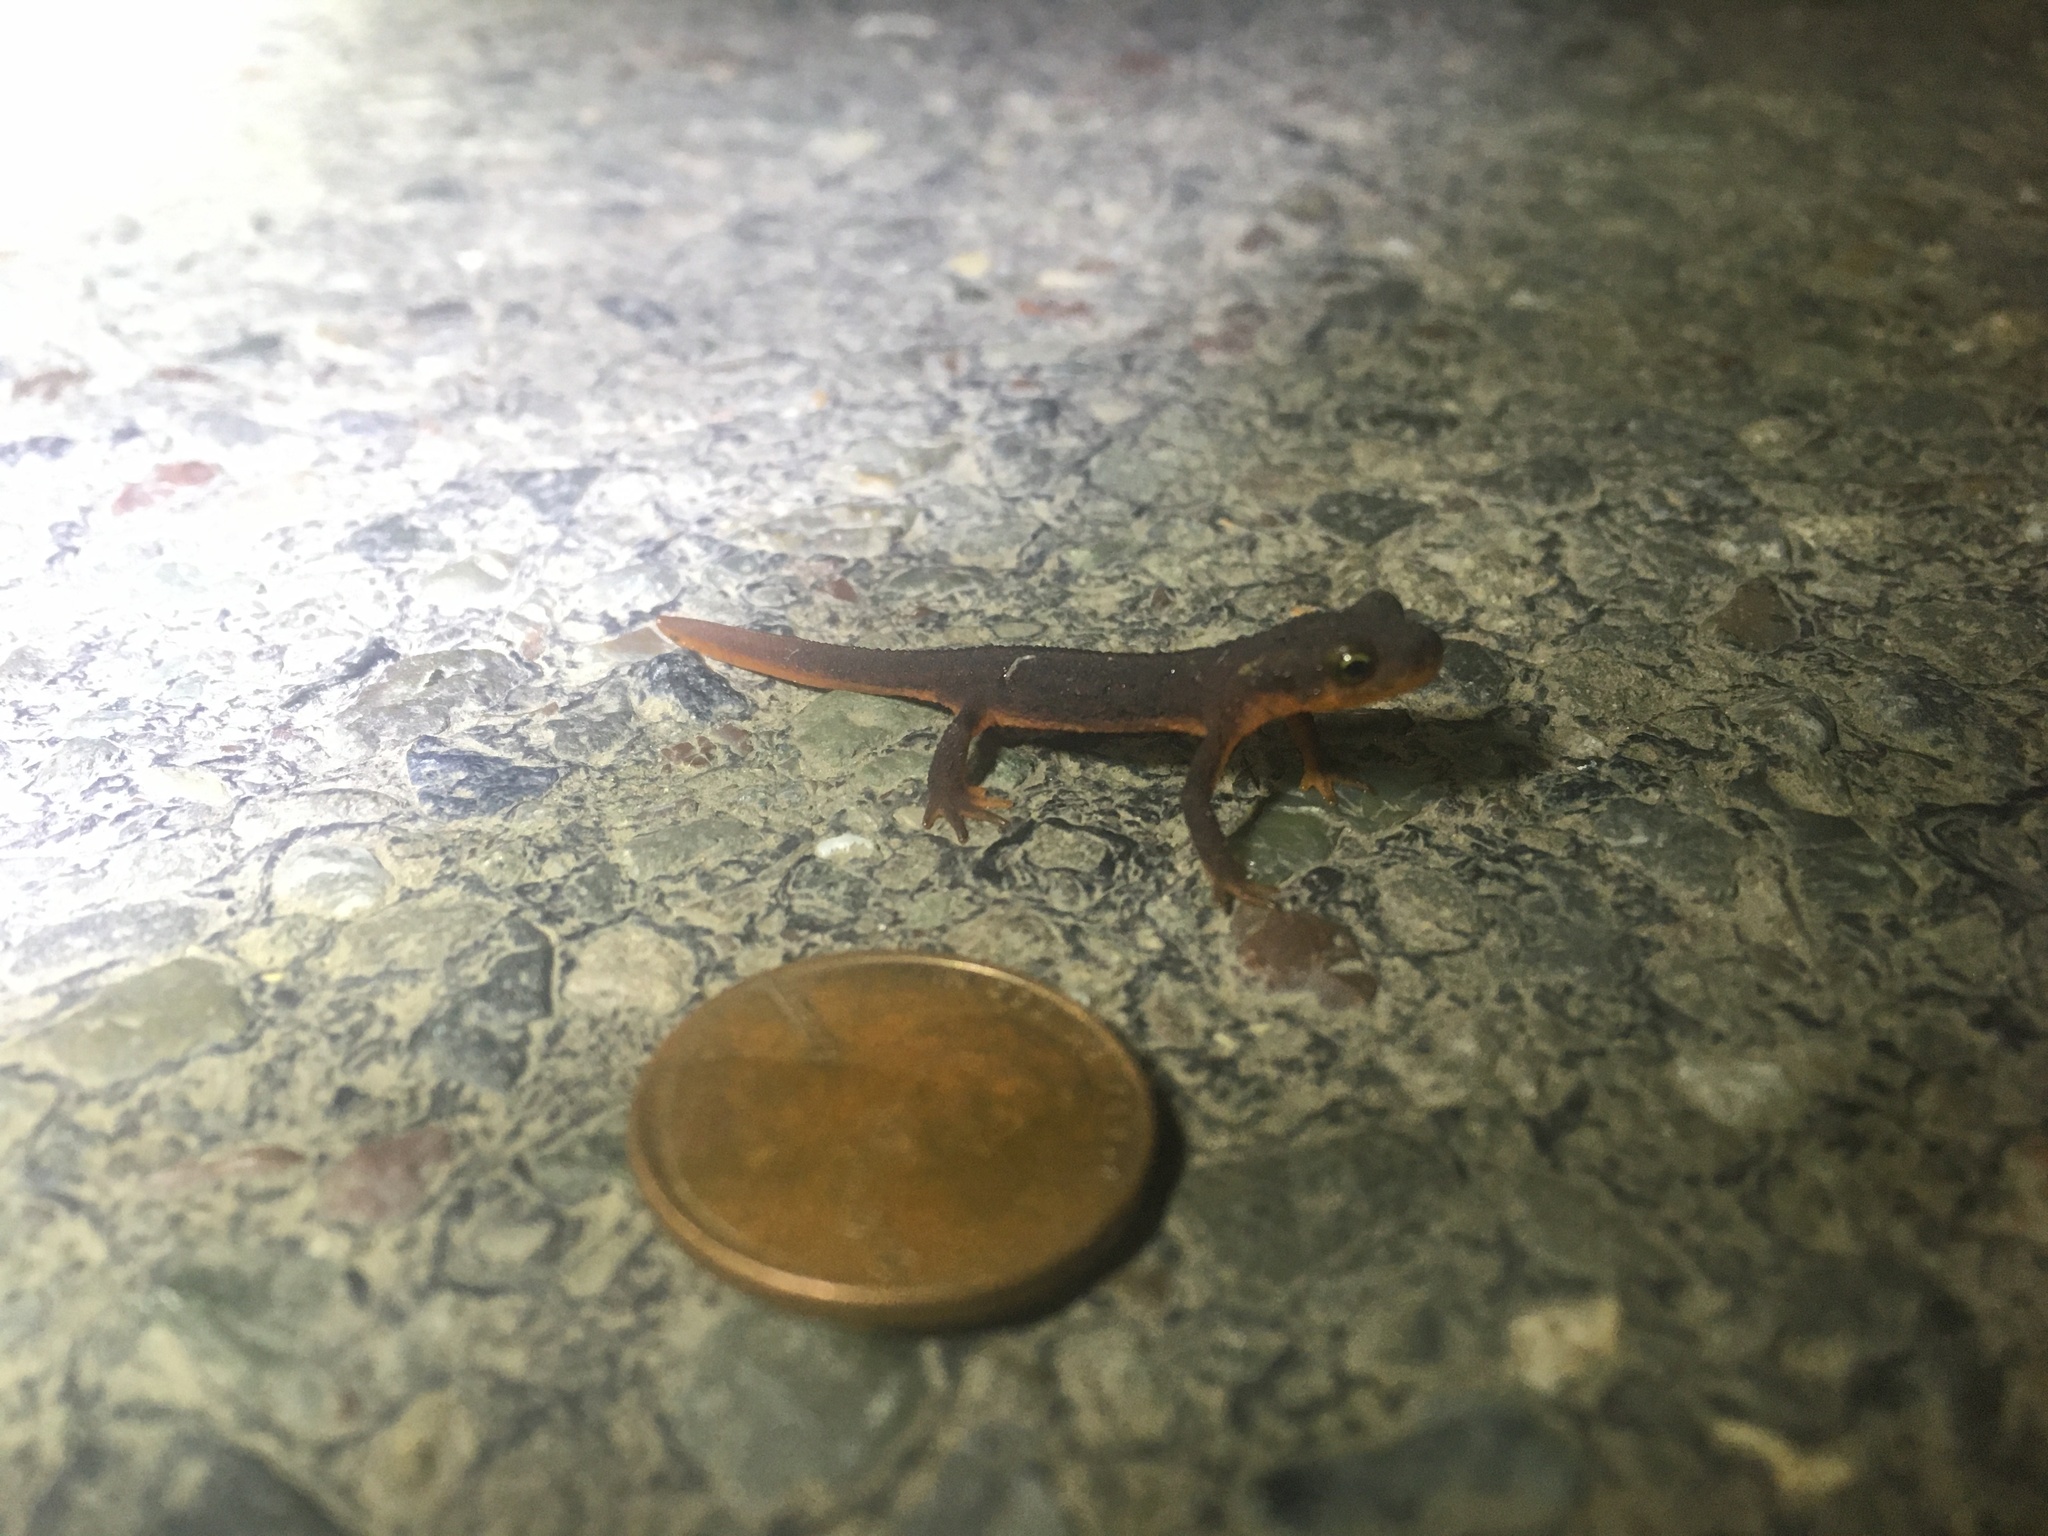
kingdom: Animalia
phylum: Chordata
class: Amphibia
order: Caudata
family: Salamandridae
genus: Taricha
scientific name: Taricha torosa
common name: California newt
